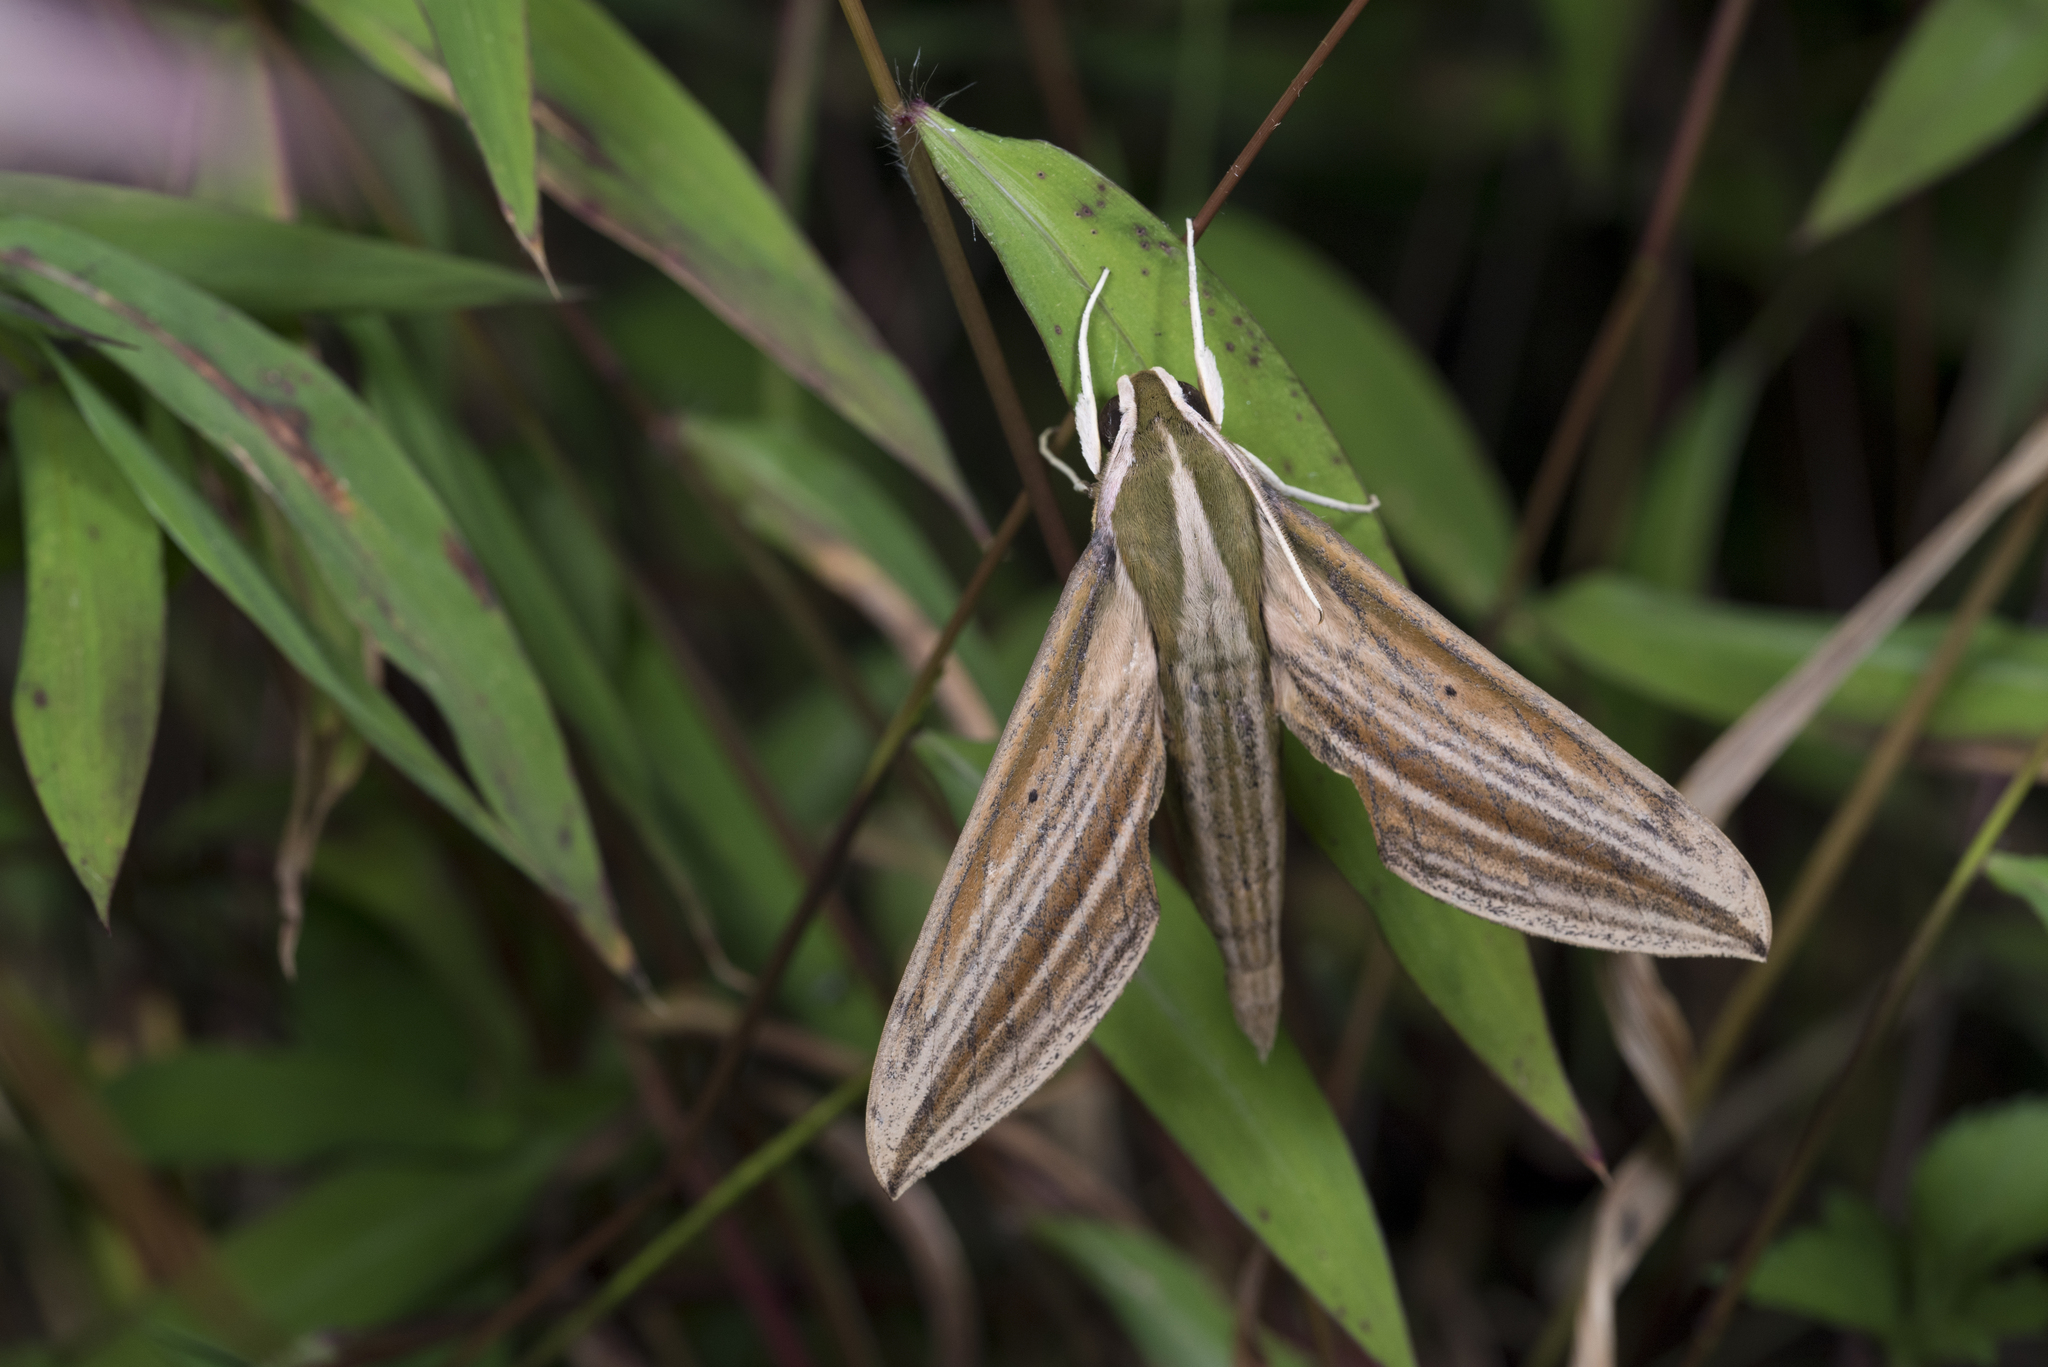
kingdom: Animalia
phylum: Arthropoda
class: Insecta
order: Lepidoptera
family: Sphingidae
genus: Cechetra
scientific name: Cechetra lineosa
